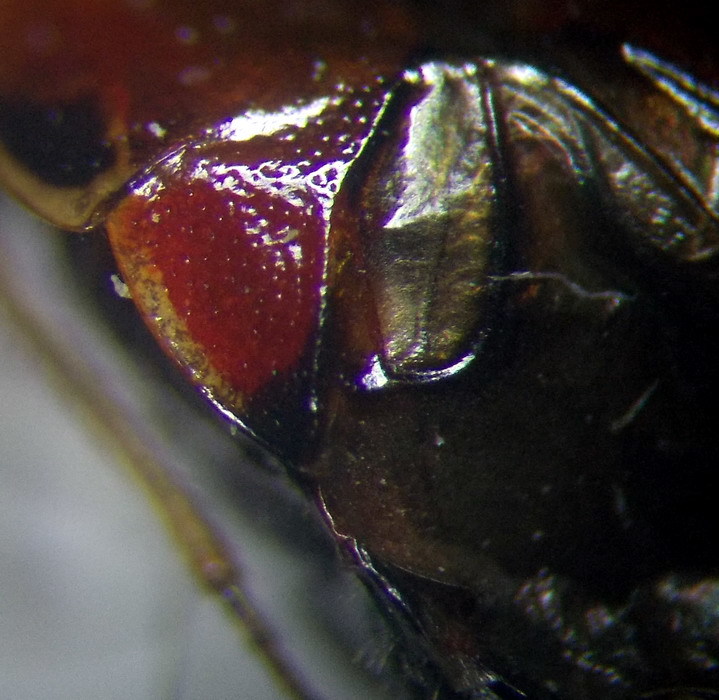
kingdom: Animalia
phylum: Arthropoda
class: Insecta
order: Hemiptera
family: Miridae
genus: Deraeocoris
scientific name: Deraeocoris ruber
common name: Plant bug
